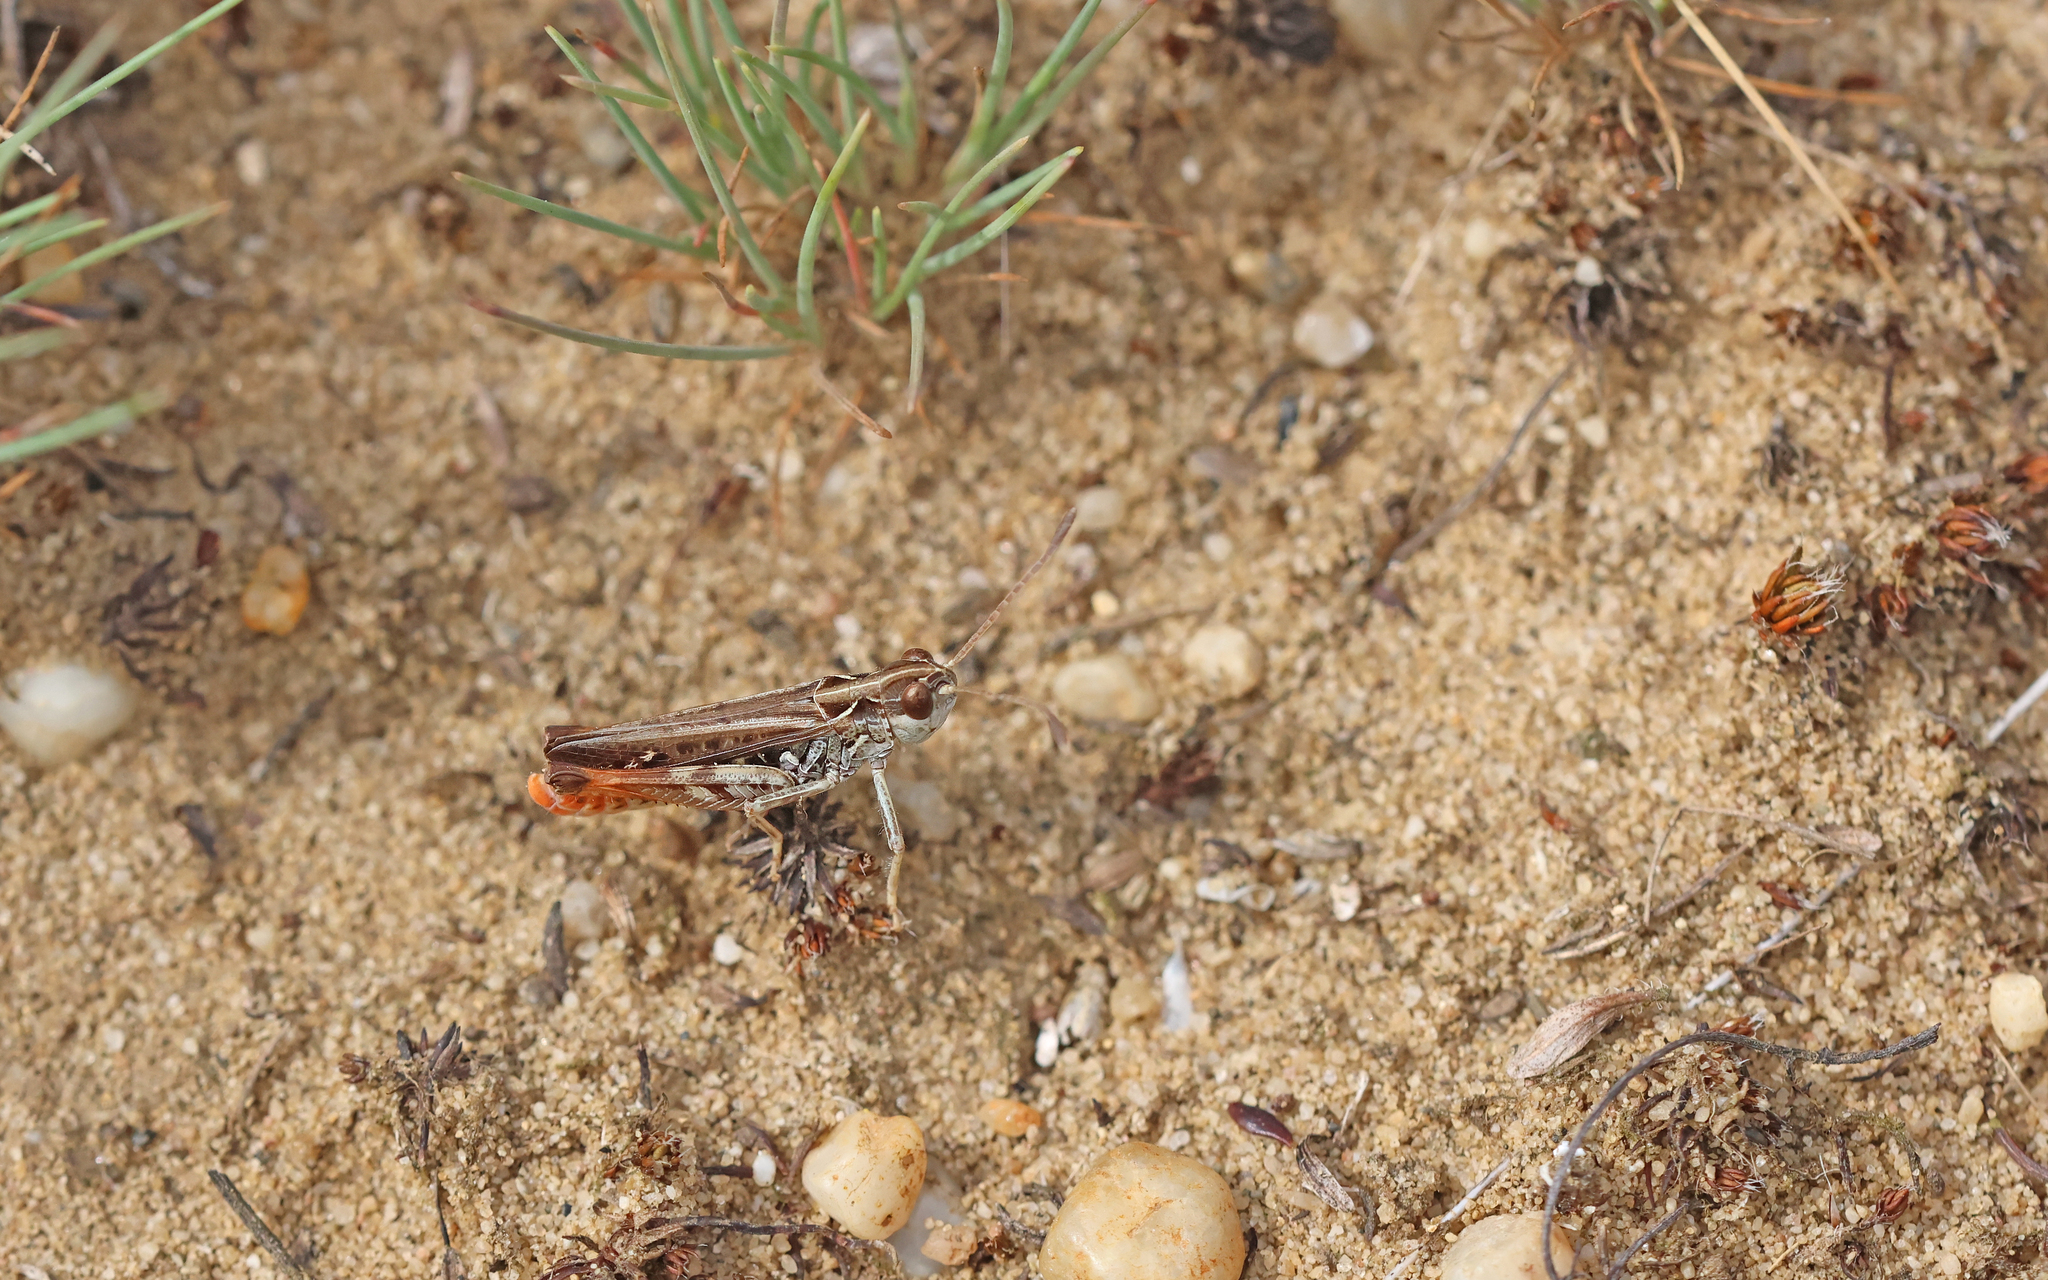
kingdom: Animalia
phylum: Arthropoda
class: Insecta
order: Orthoptera
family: Acrididae
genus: Myrmeleotettix
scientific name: Myrmeleotettix maculatus
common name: Mottled grasshopper
